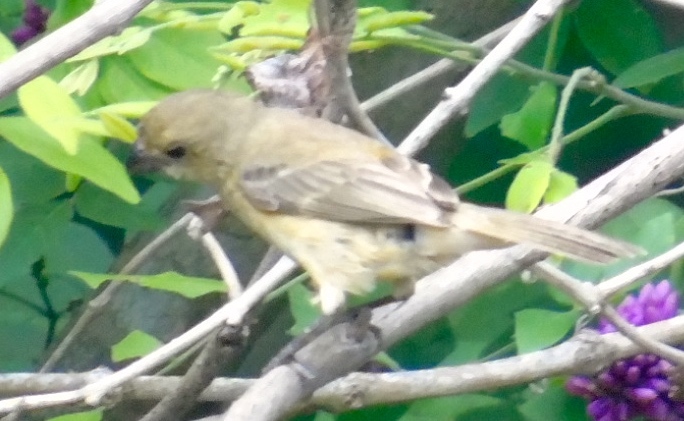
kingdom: Animalia
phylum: Chordata
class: Aves
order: Passeriformes
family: Thraupidae
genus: Sporophila
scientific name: Sporophila torqueola
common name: White-collared seedeater
